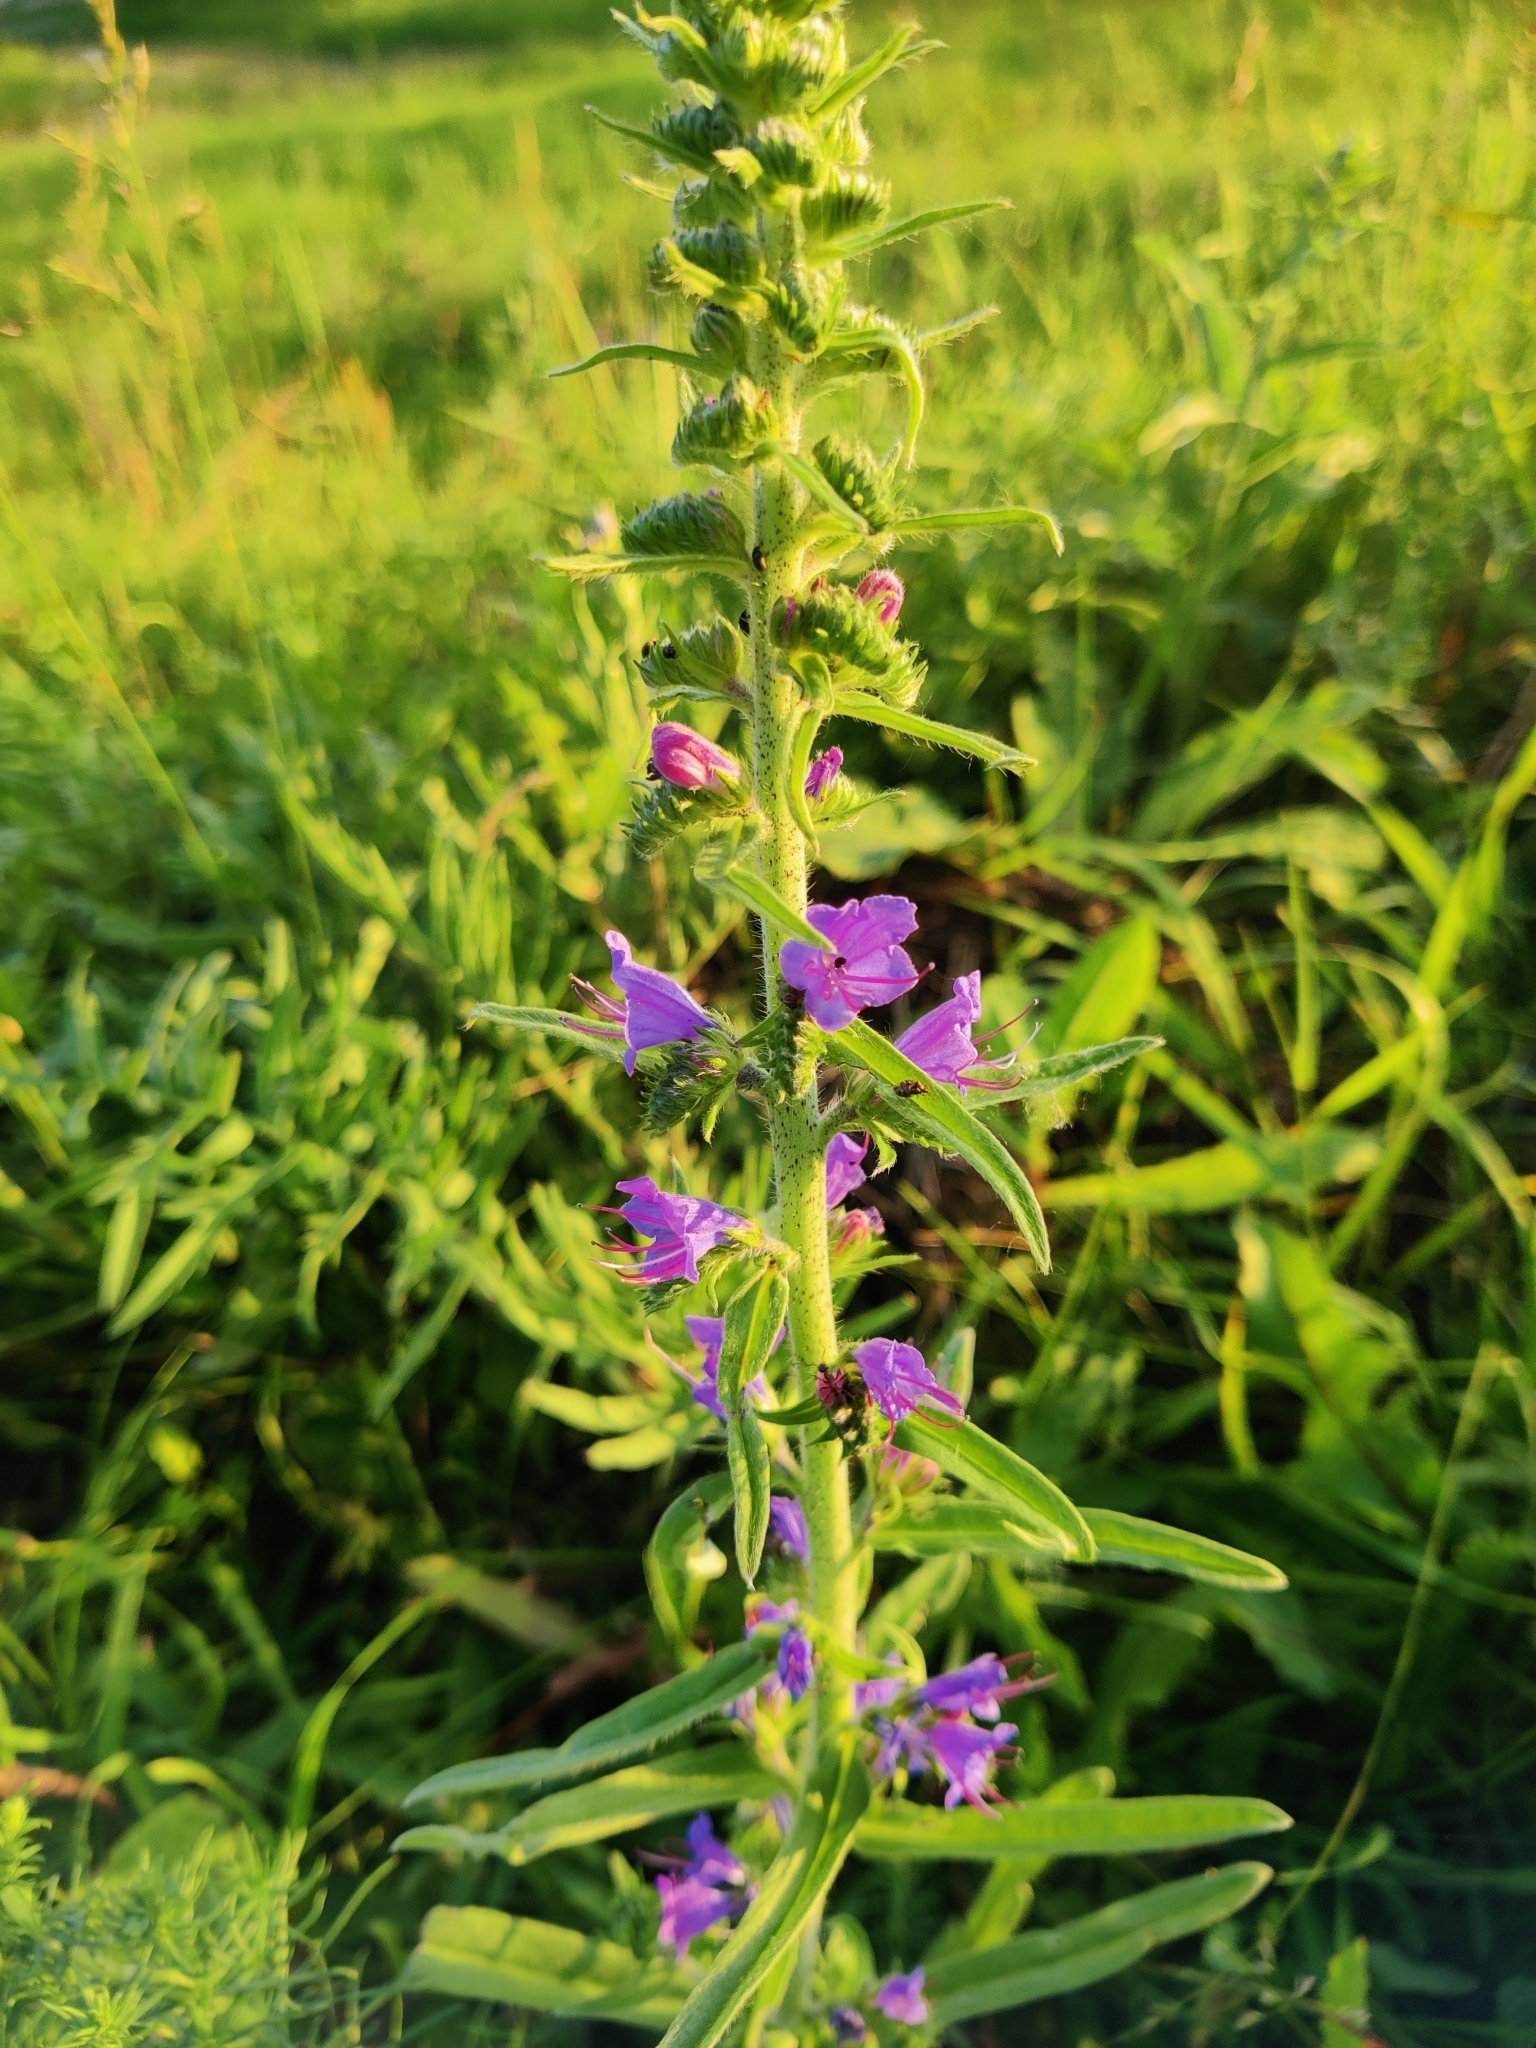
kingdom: Plantae
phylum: Tracheophyta
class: Magnoliopsida
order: Boraginales
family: Boraginaceae
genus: Echium
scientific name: Echium vulgare
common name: Common viper's bugloss
